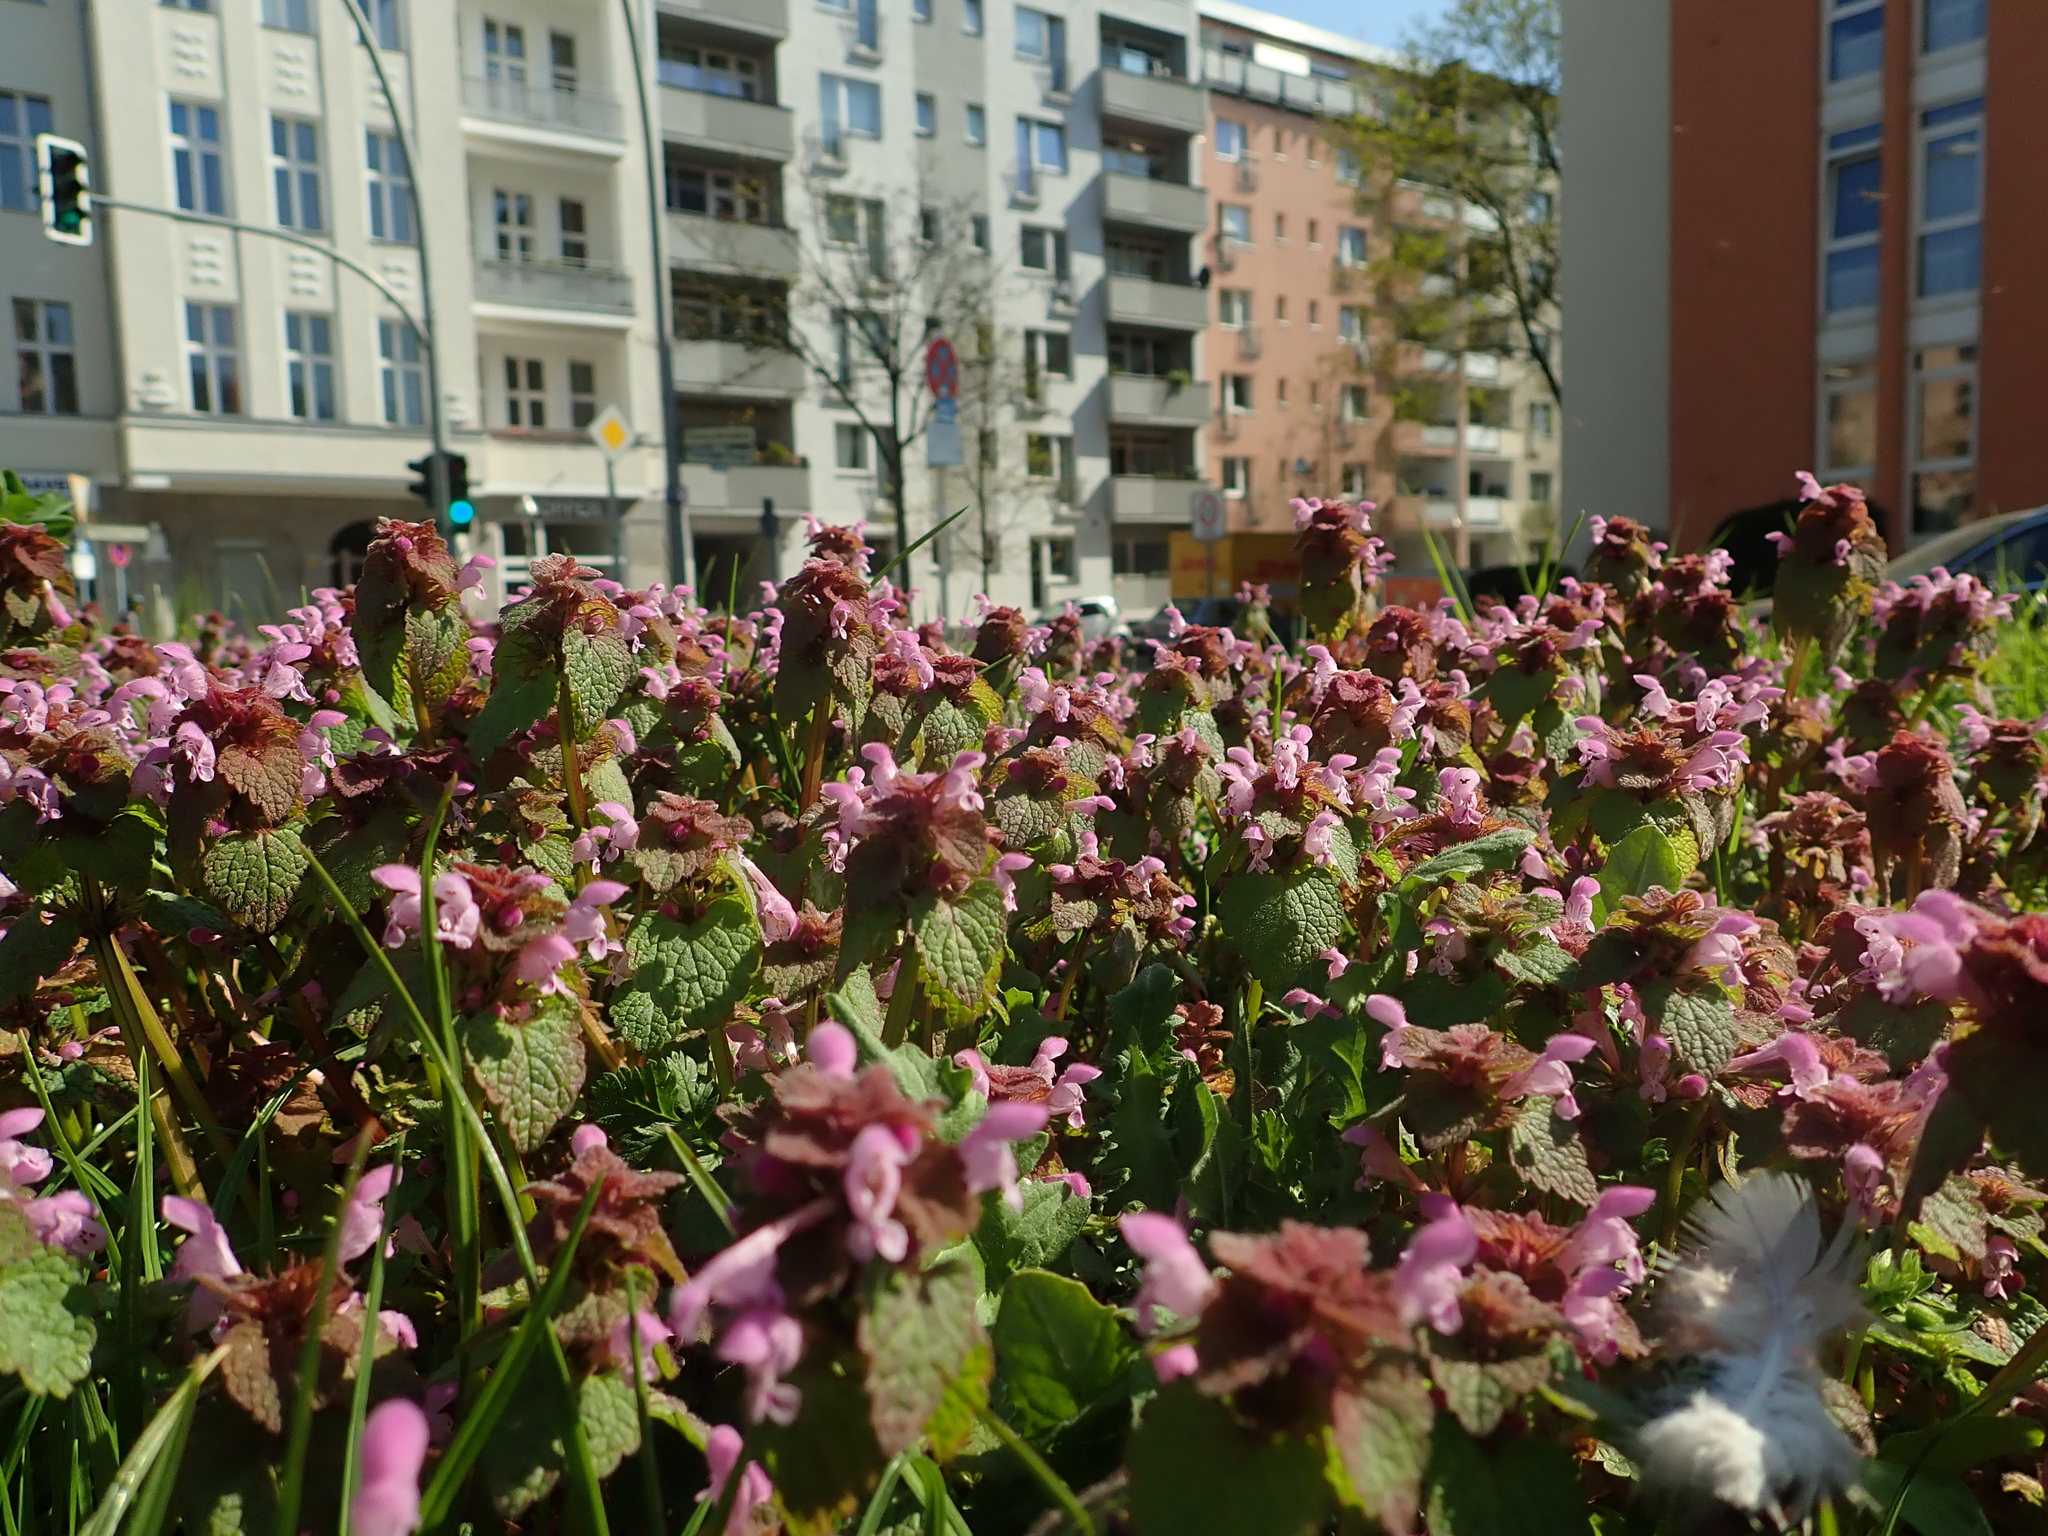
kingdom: Plantae
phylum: Tracheophyta
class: Magnoliopsida
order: Lamiales
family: Lamiaceae
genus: Lamium
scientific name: Lamium purpureum
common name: Red dead-nettle
